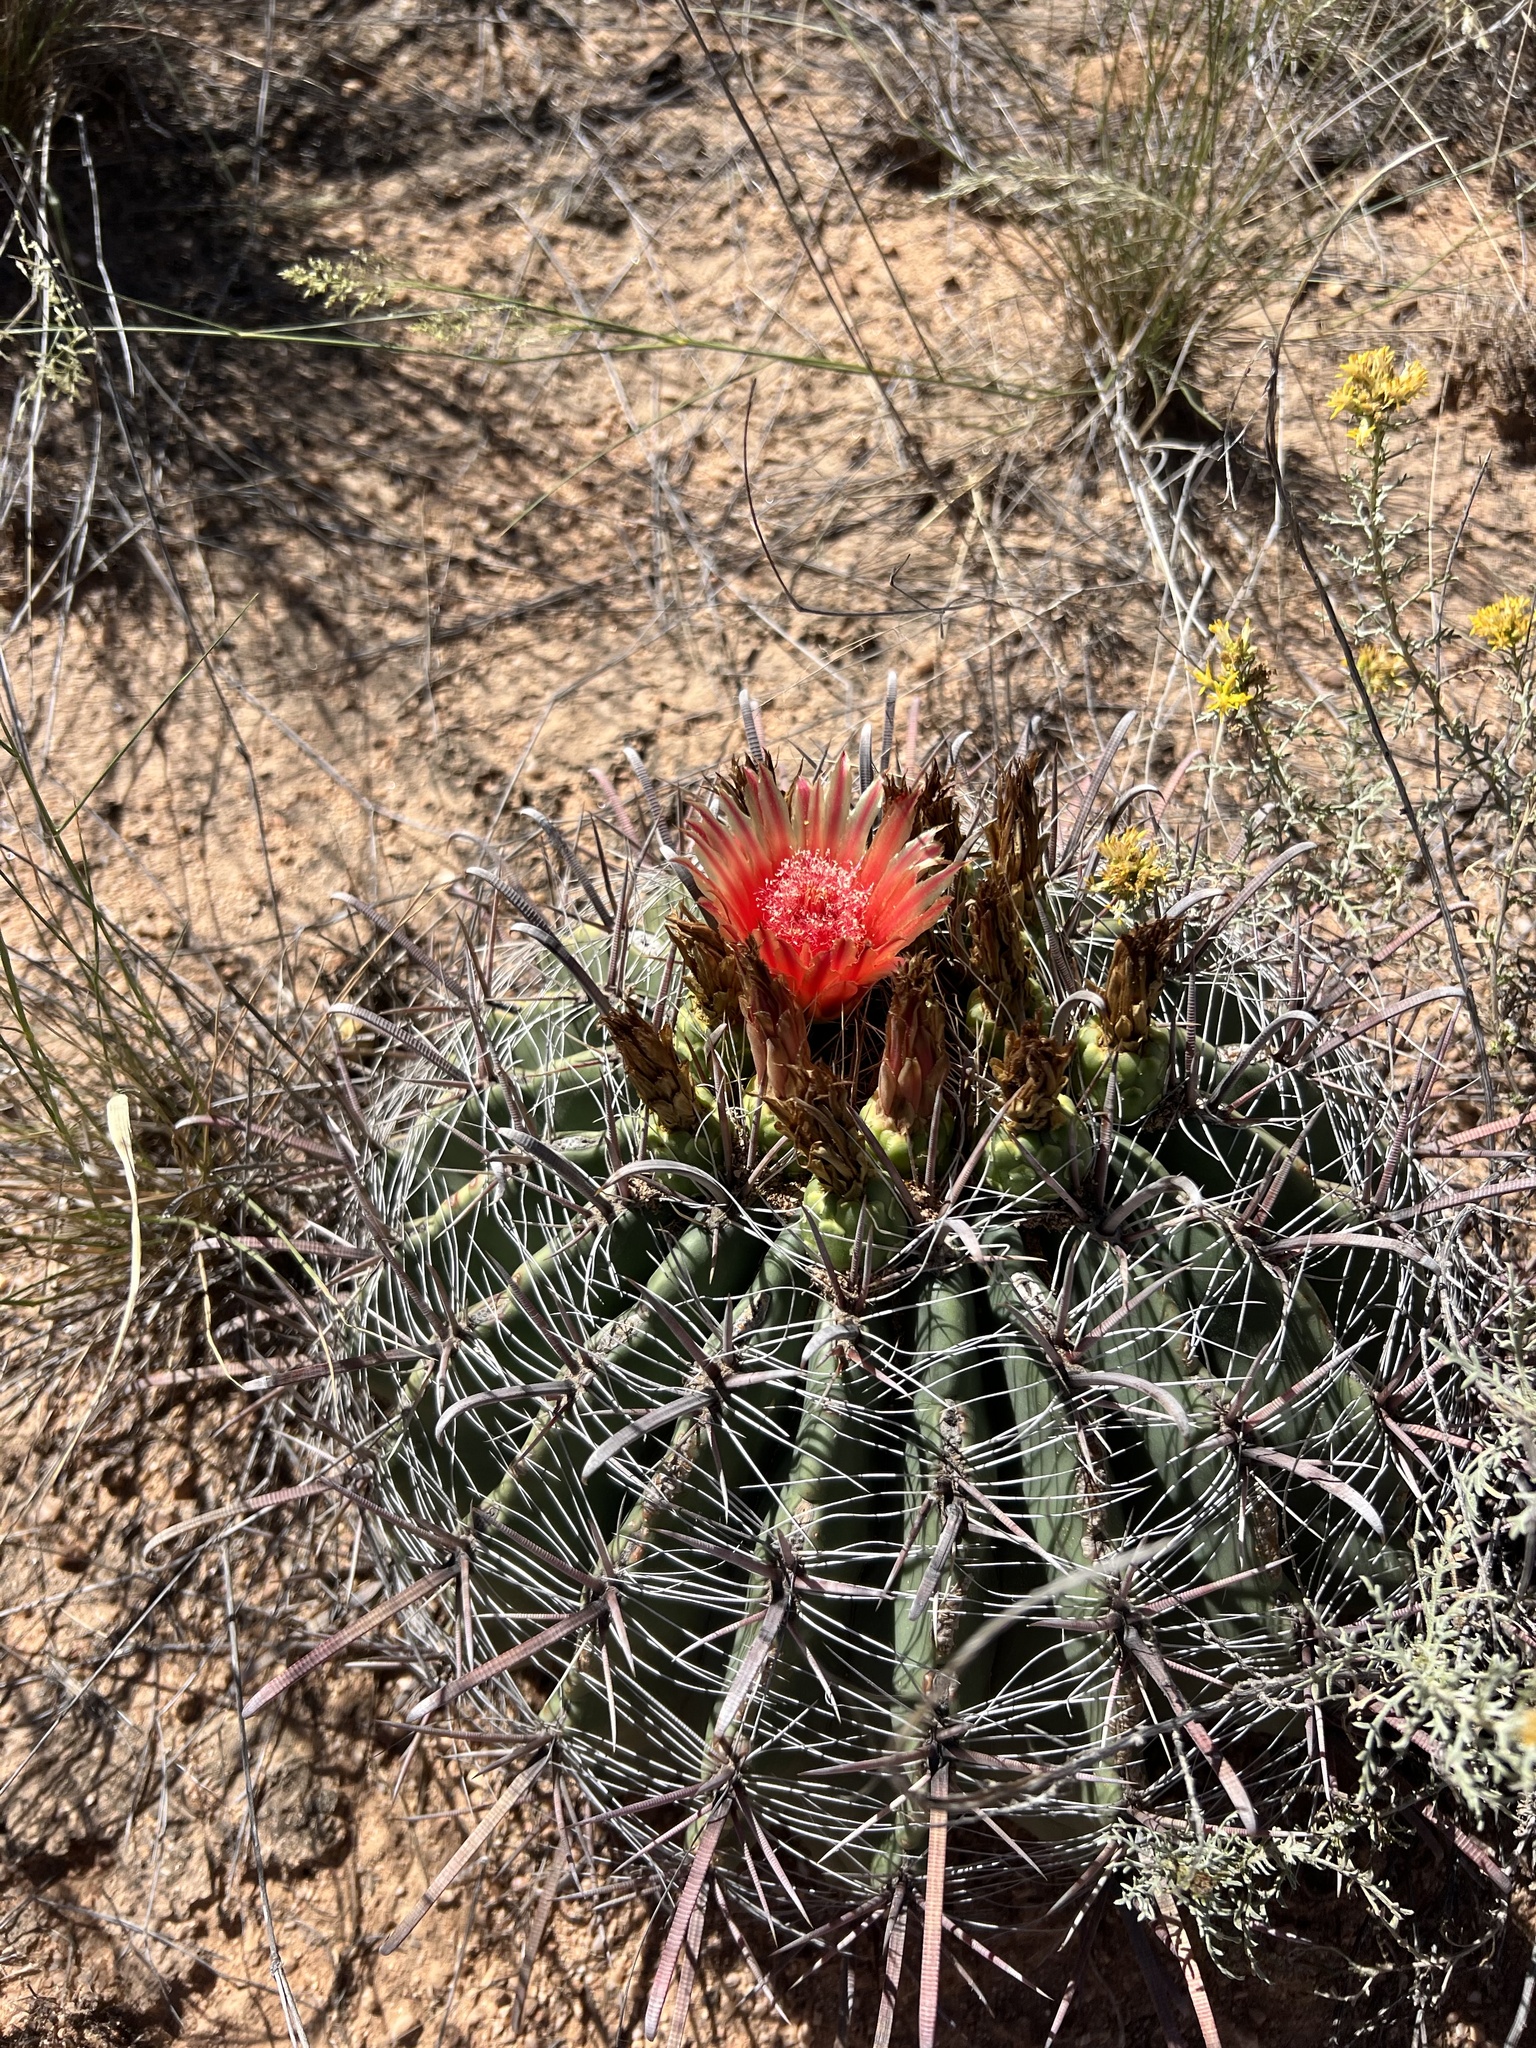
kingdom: Plantae
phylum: Tracheophyta
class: Magnoliopsida
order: Caryophyllales
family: Cactaceae
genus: Ferocactus
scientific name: Ferocactus wislizeni
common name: Candy barrel cactus
